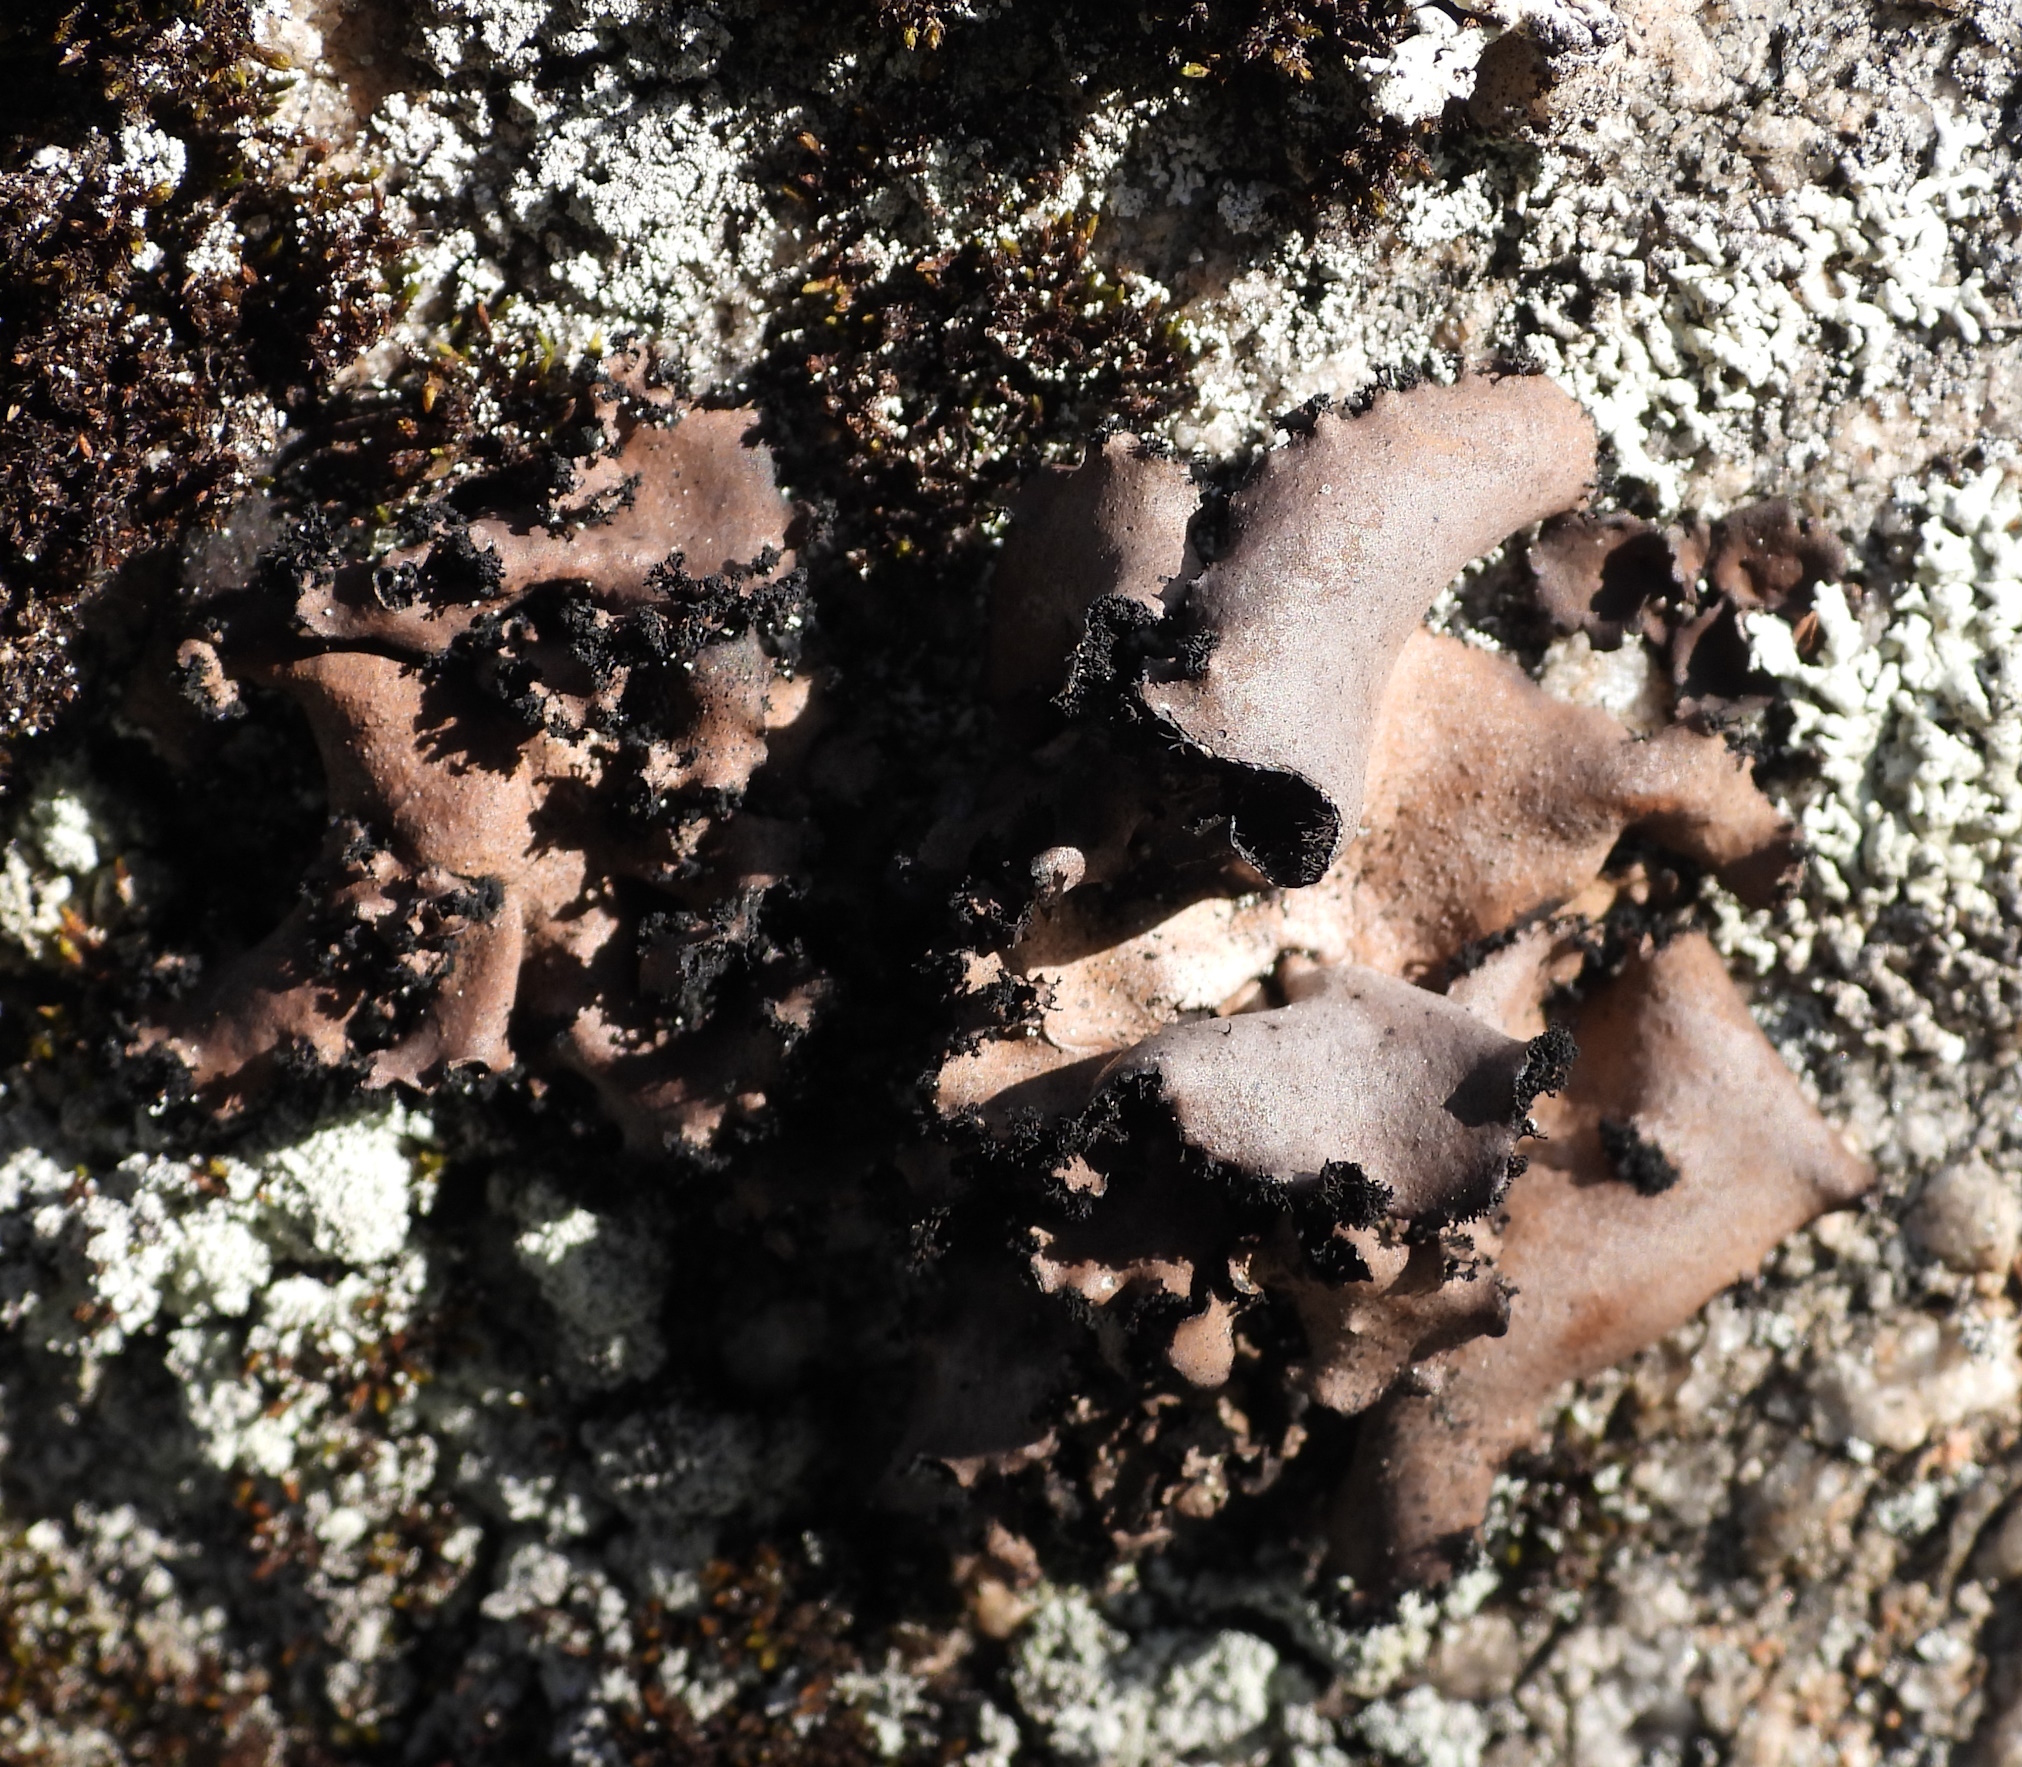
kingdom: Fungi
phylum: Ascomycota
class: Lecanoromycetes
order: Umbilicariales
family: Umbilicariaceae
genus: Umbilicaria
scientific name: Umbilicaria polyrrhiza
